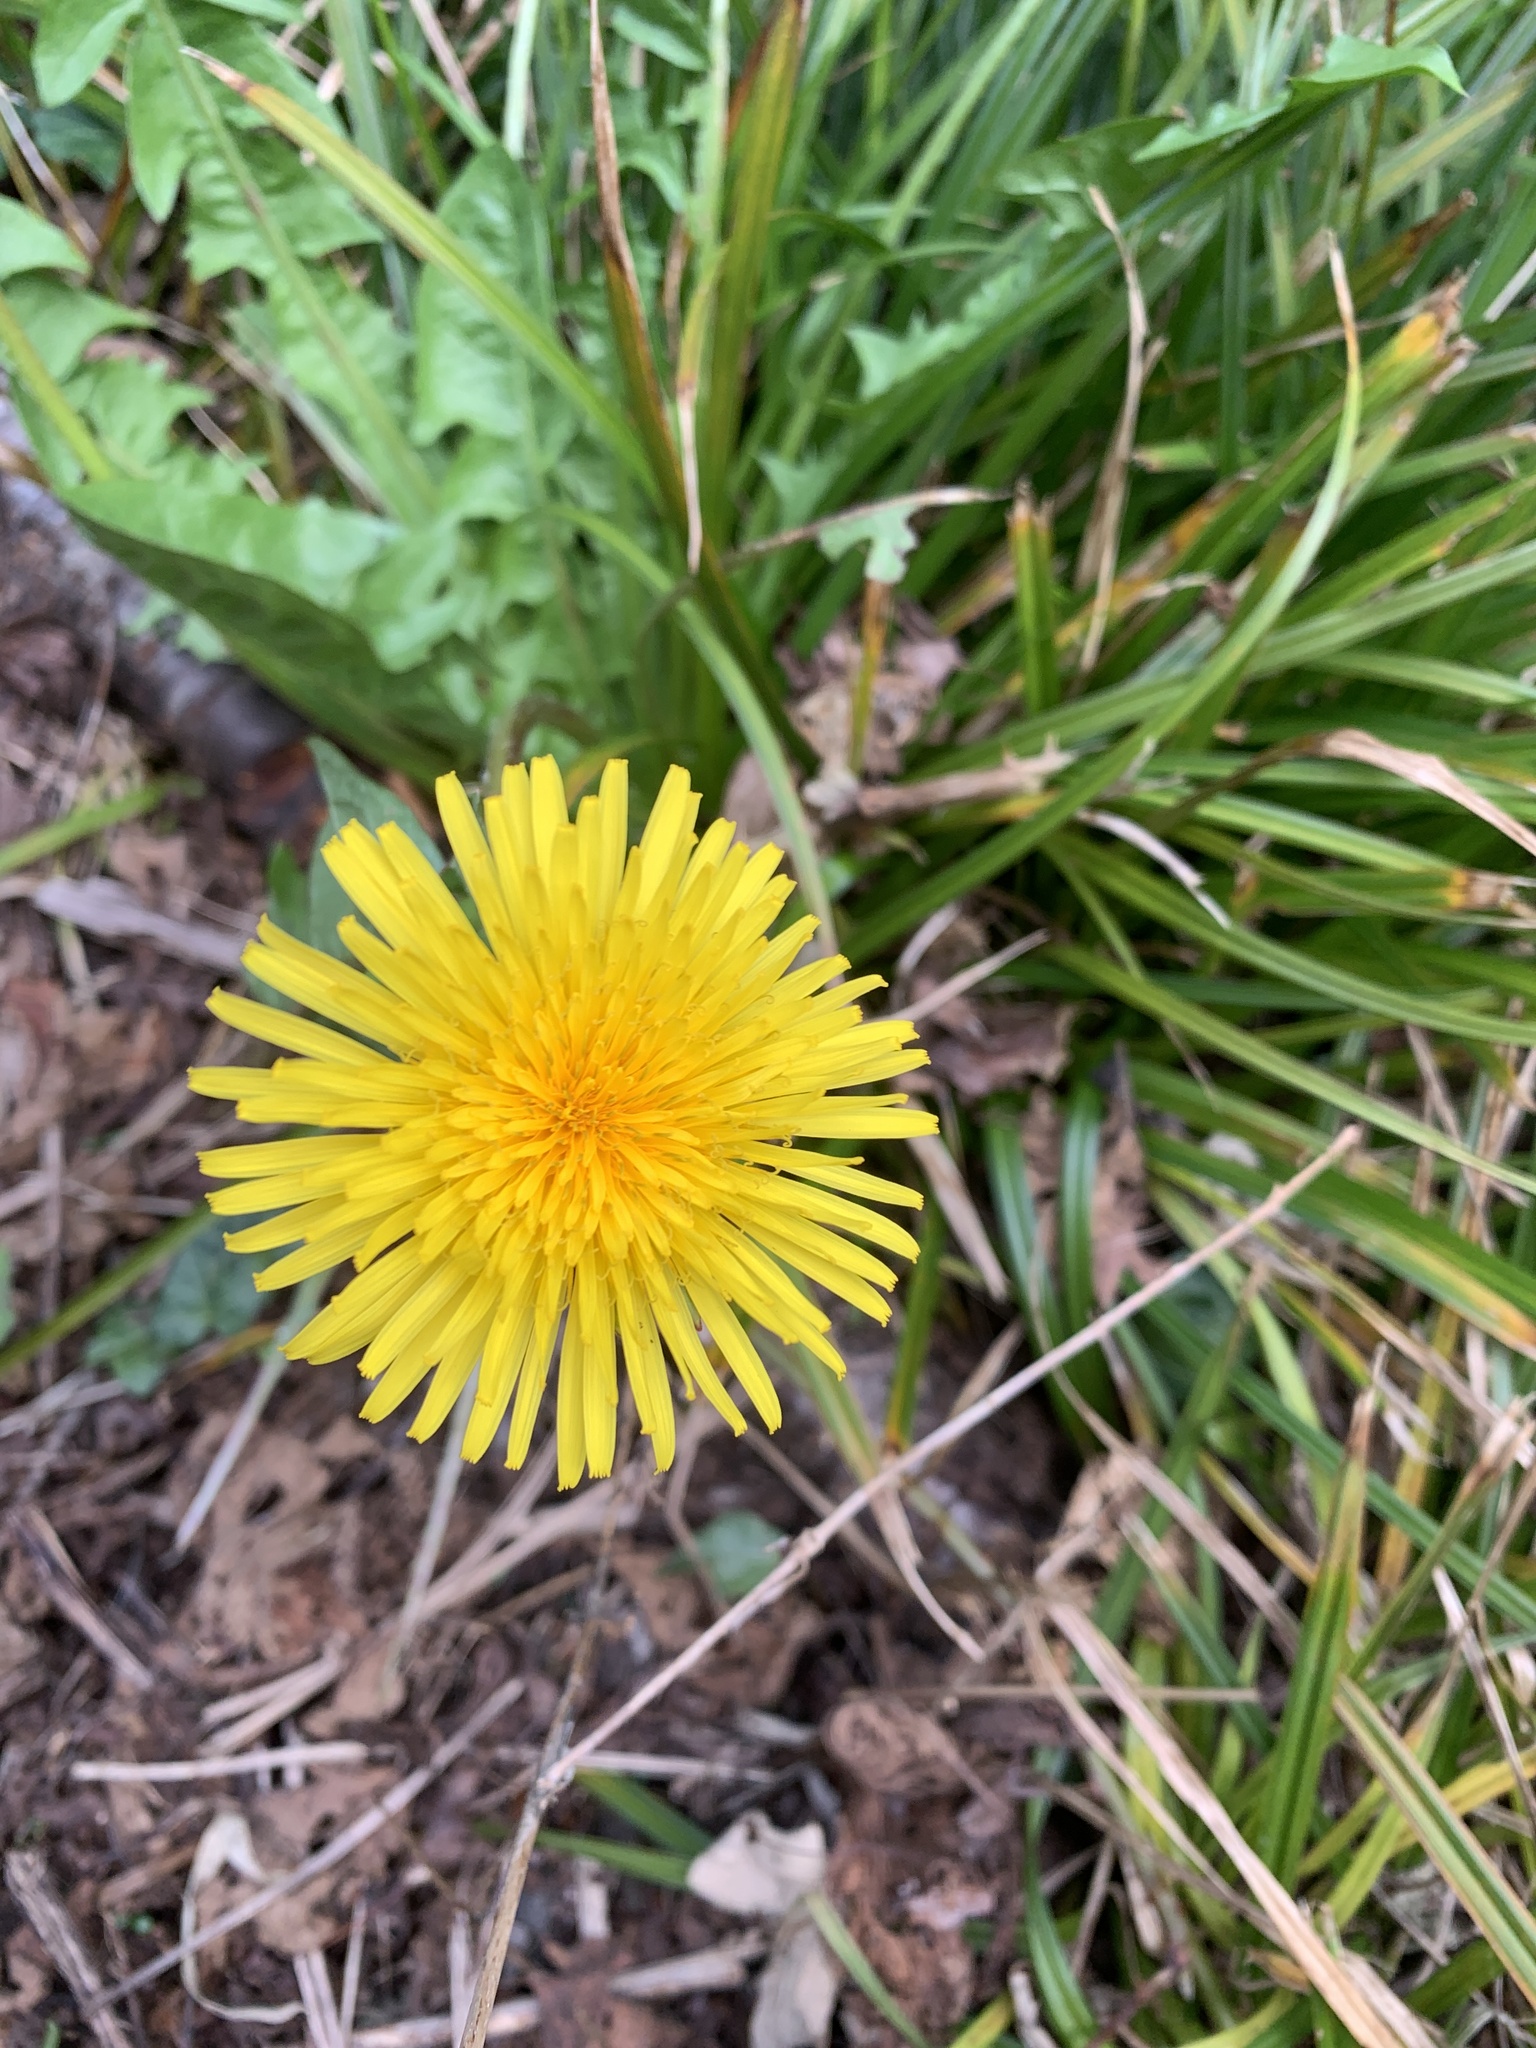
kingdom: Plantae
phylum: Tracheophyta
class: Magnoliopsida
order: Asterales
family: Asteraceae
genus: Taraxacum
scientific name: Taraxacum officinale
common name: Common dandelion
